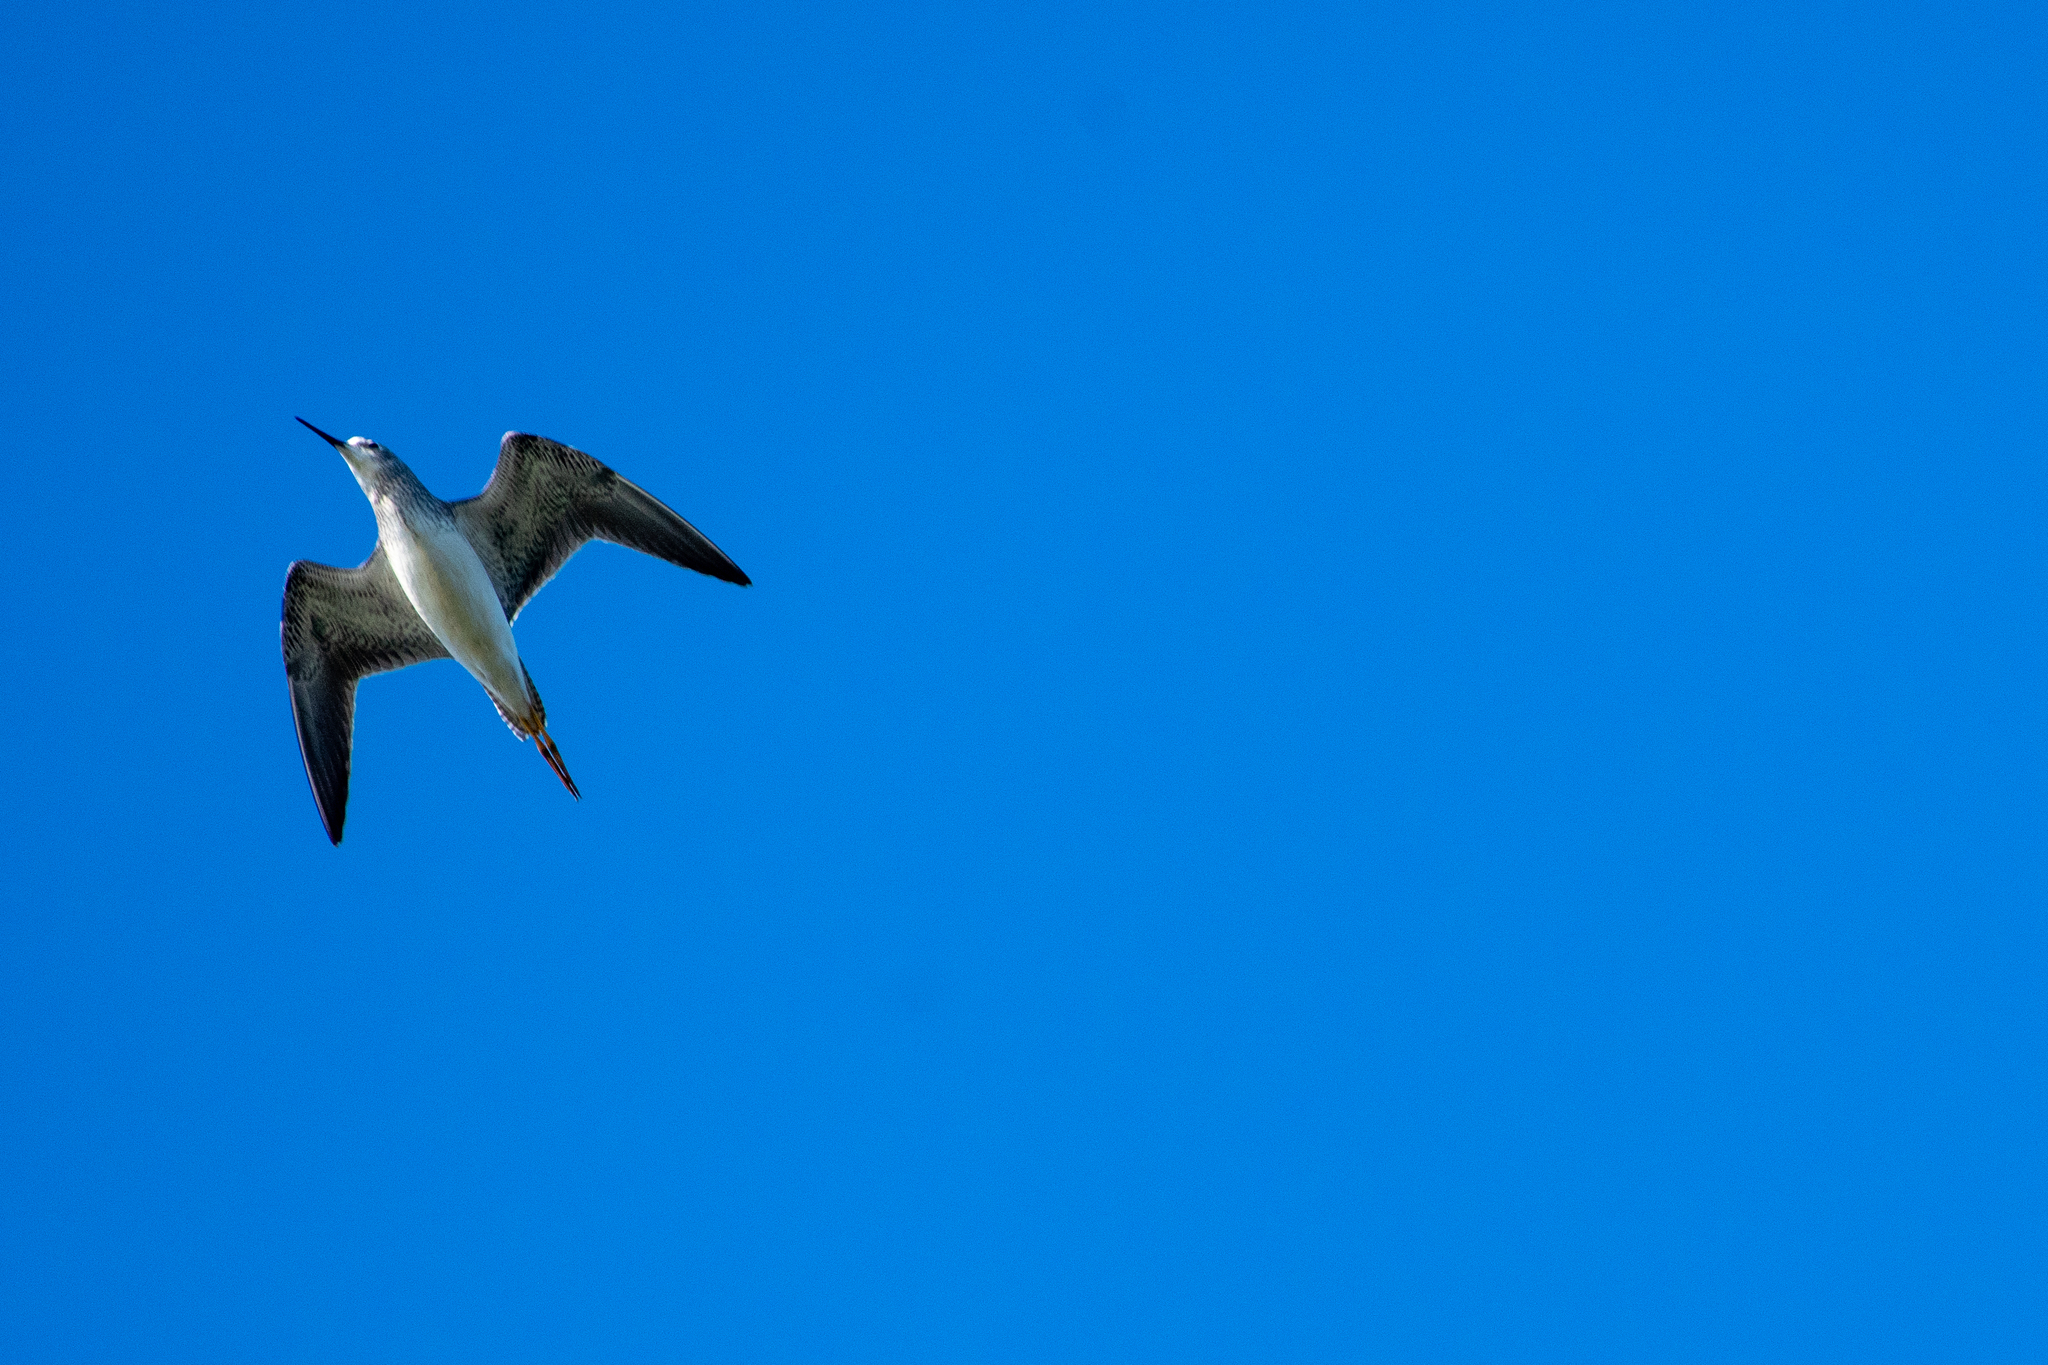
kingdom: Animalia
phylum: Chordata
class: Aves
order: Charadriiformes
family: Scolopacidae
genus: Tringa
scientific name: Tringa melanoleuca
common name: Greater yellowlegs
